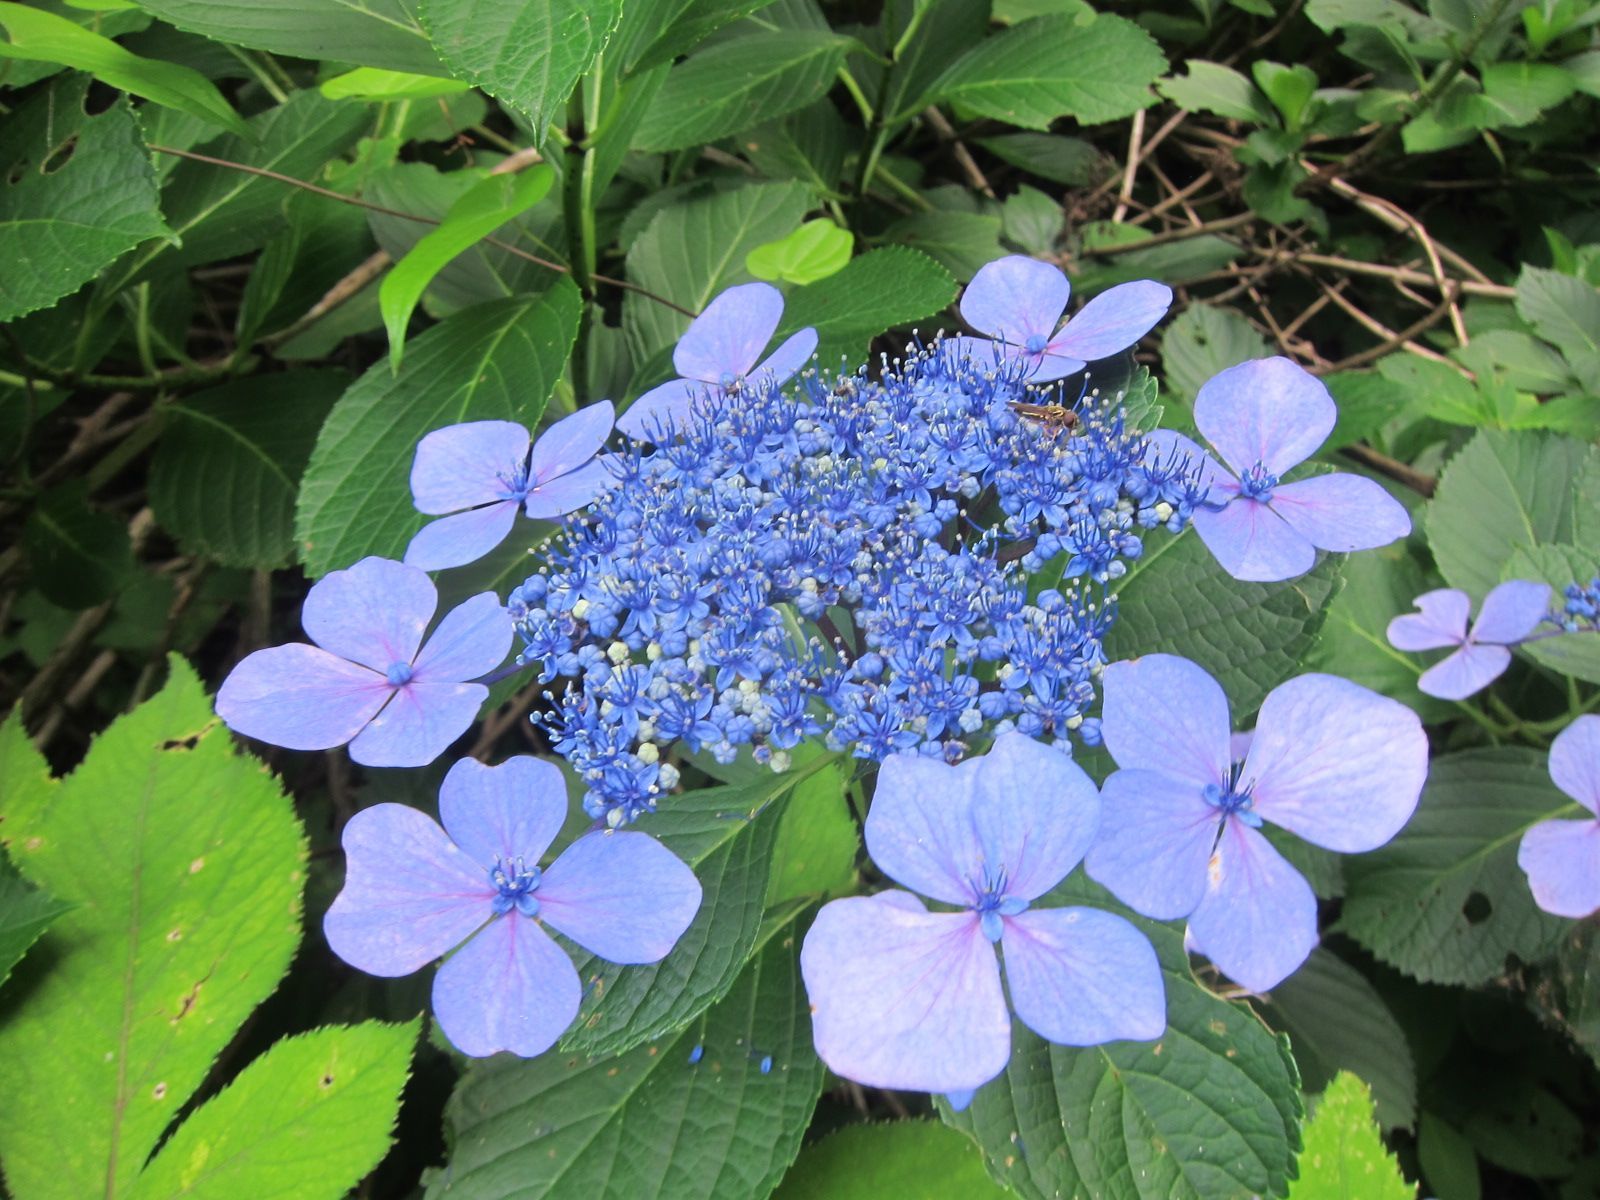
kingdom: Plantae
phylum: Tracheophyta
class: Magnoliopsida
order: Cornales
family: Hydrangeaceae
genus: Hydrangea
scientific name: Hydrangea serrata
